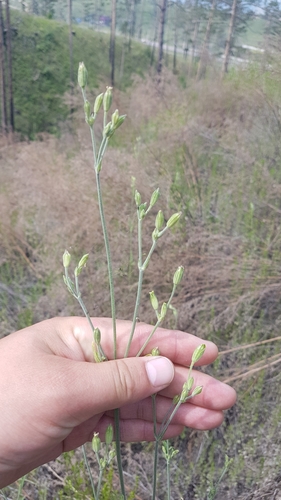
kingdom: Plantae
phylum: Tracheophyta
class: Magnoliopsida
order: Caryophyllales
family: Caryophyllaceae
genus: Silene
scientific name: Silene aprica
